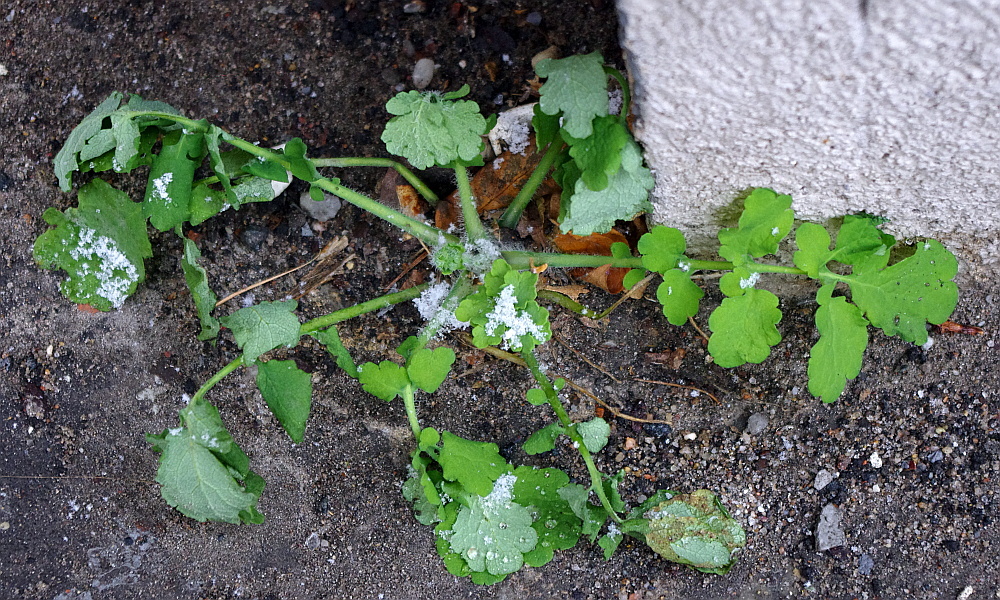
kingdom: Plantae
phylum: Tracheophyta
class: Magnoliopsida
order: Ranunculales
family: Papaveraceae
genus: Chelidonium
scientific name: Chelidonium majus
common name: Greater celandine
